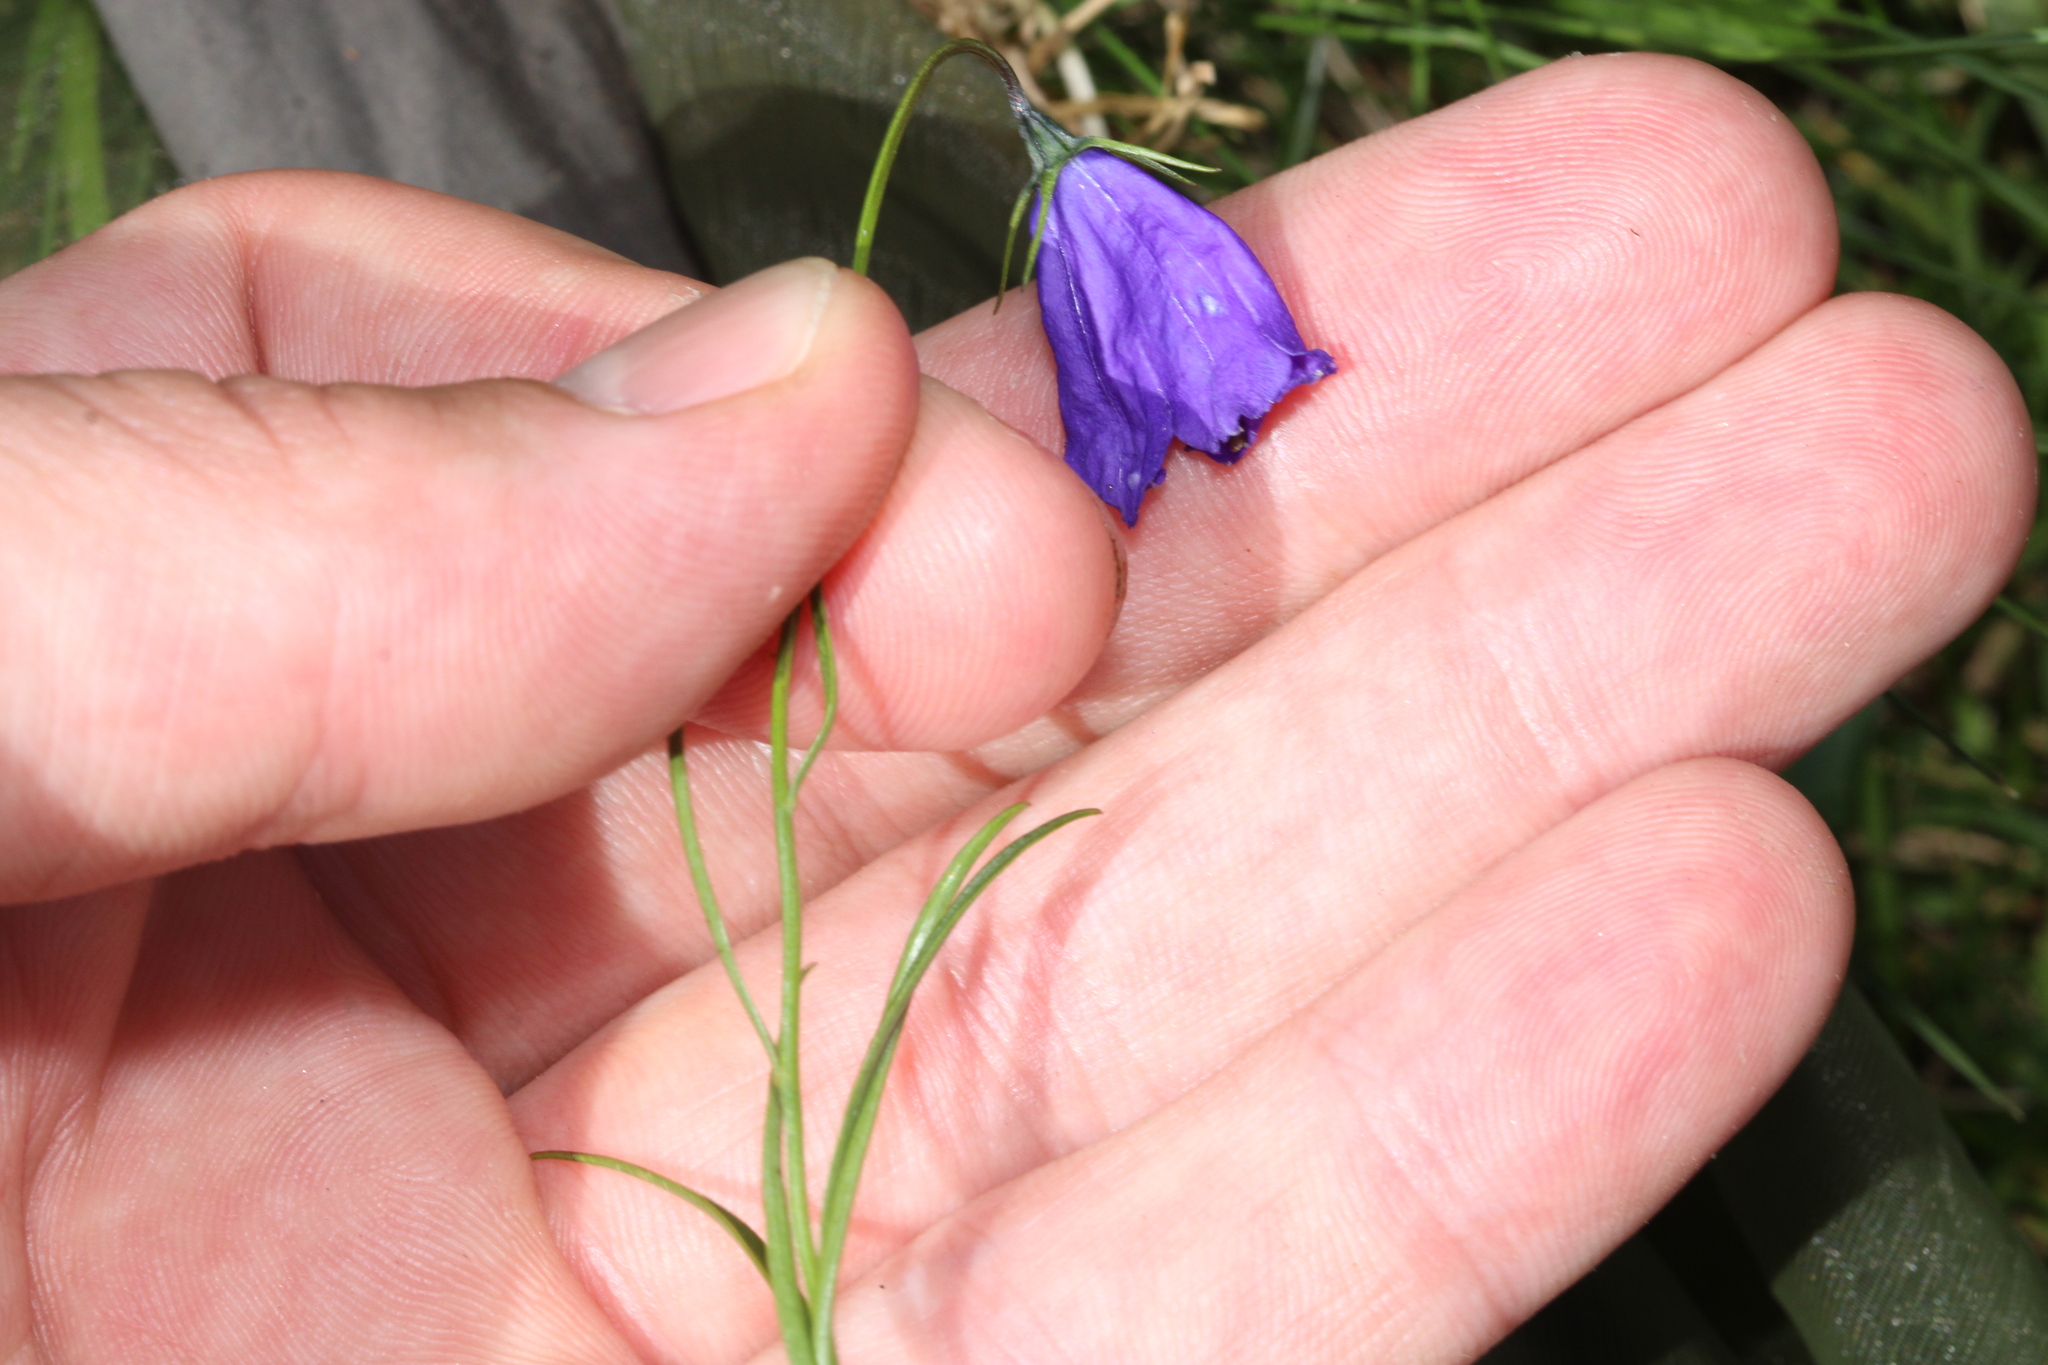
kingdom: Plantae
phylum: Tracheophyta
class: Magnoliopsida
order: Asterales
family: Campanulaceae
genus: Campanula
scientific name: Campanula scheuchzeri
